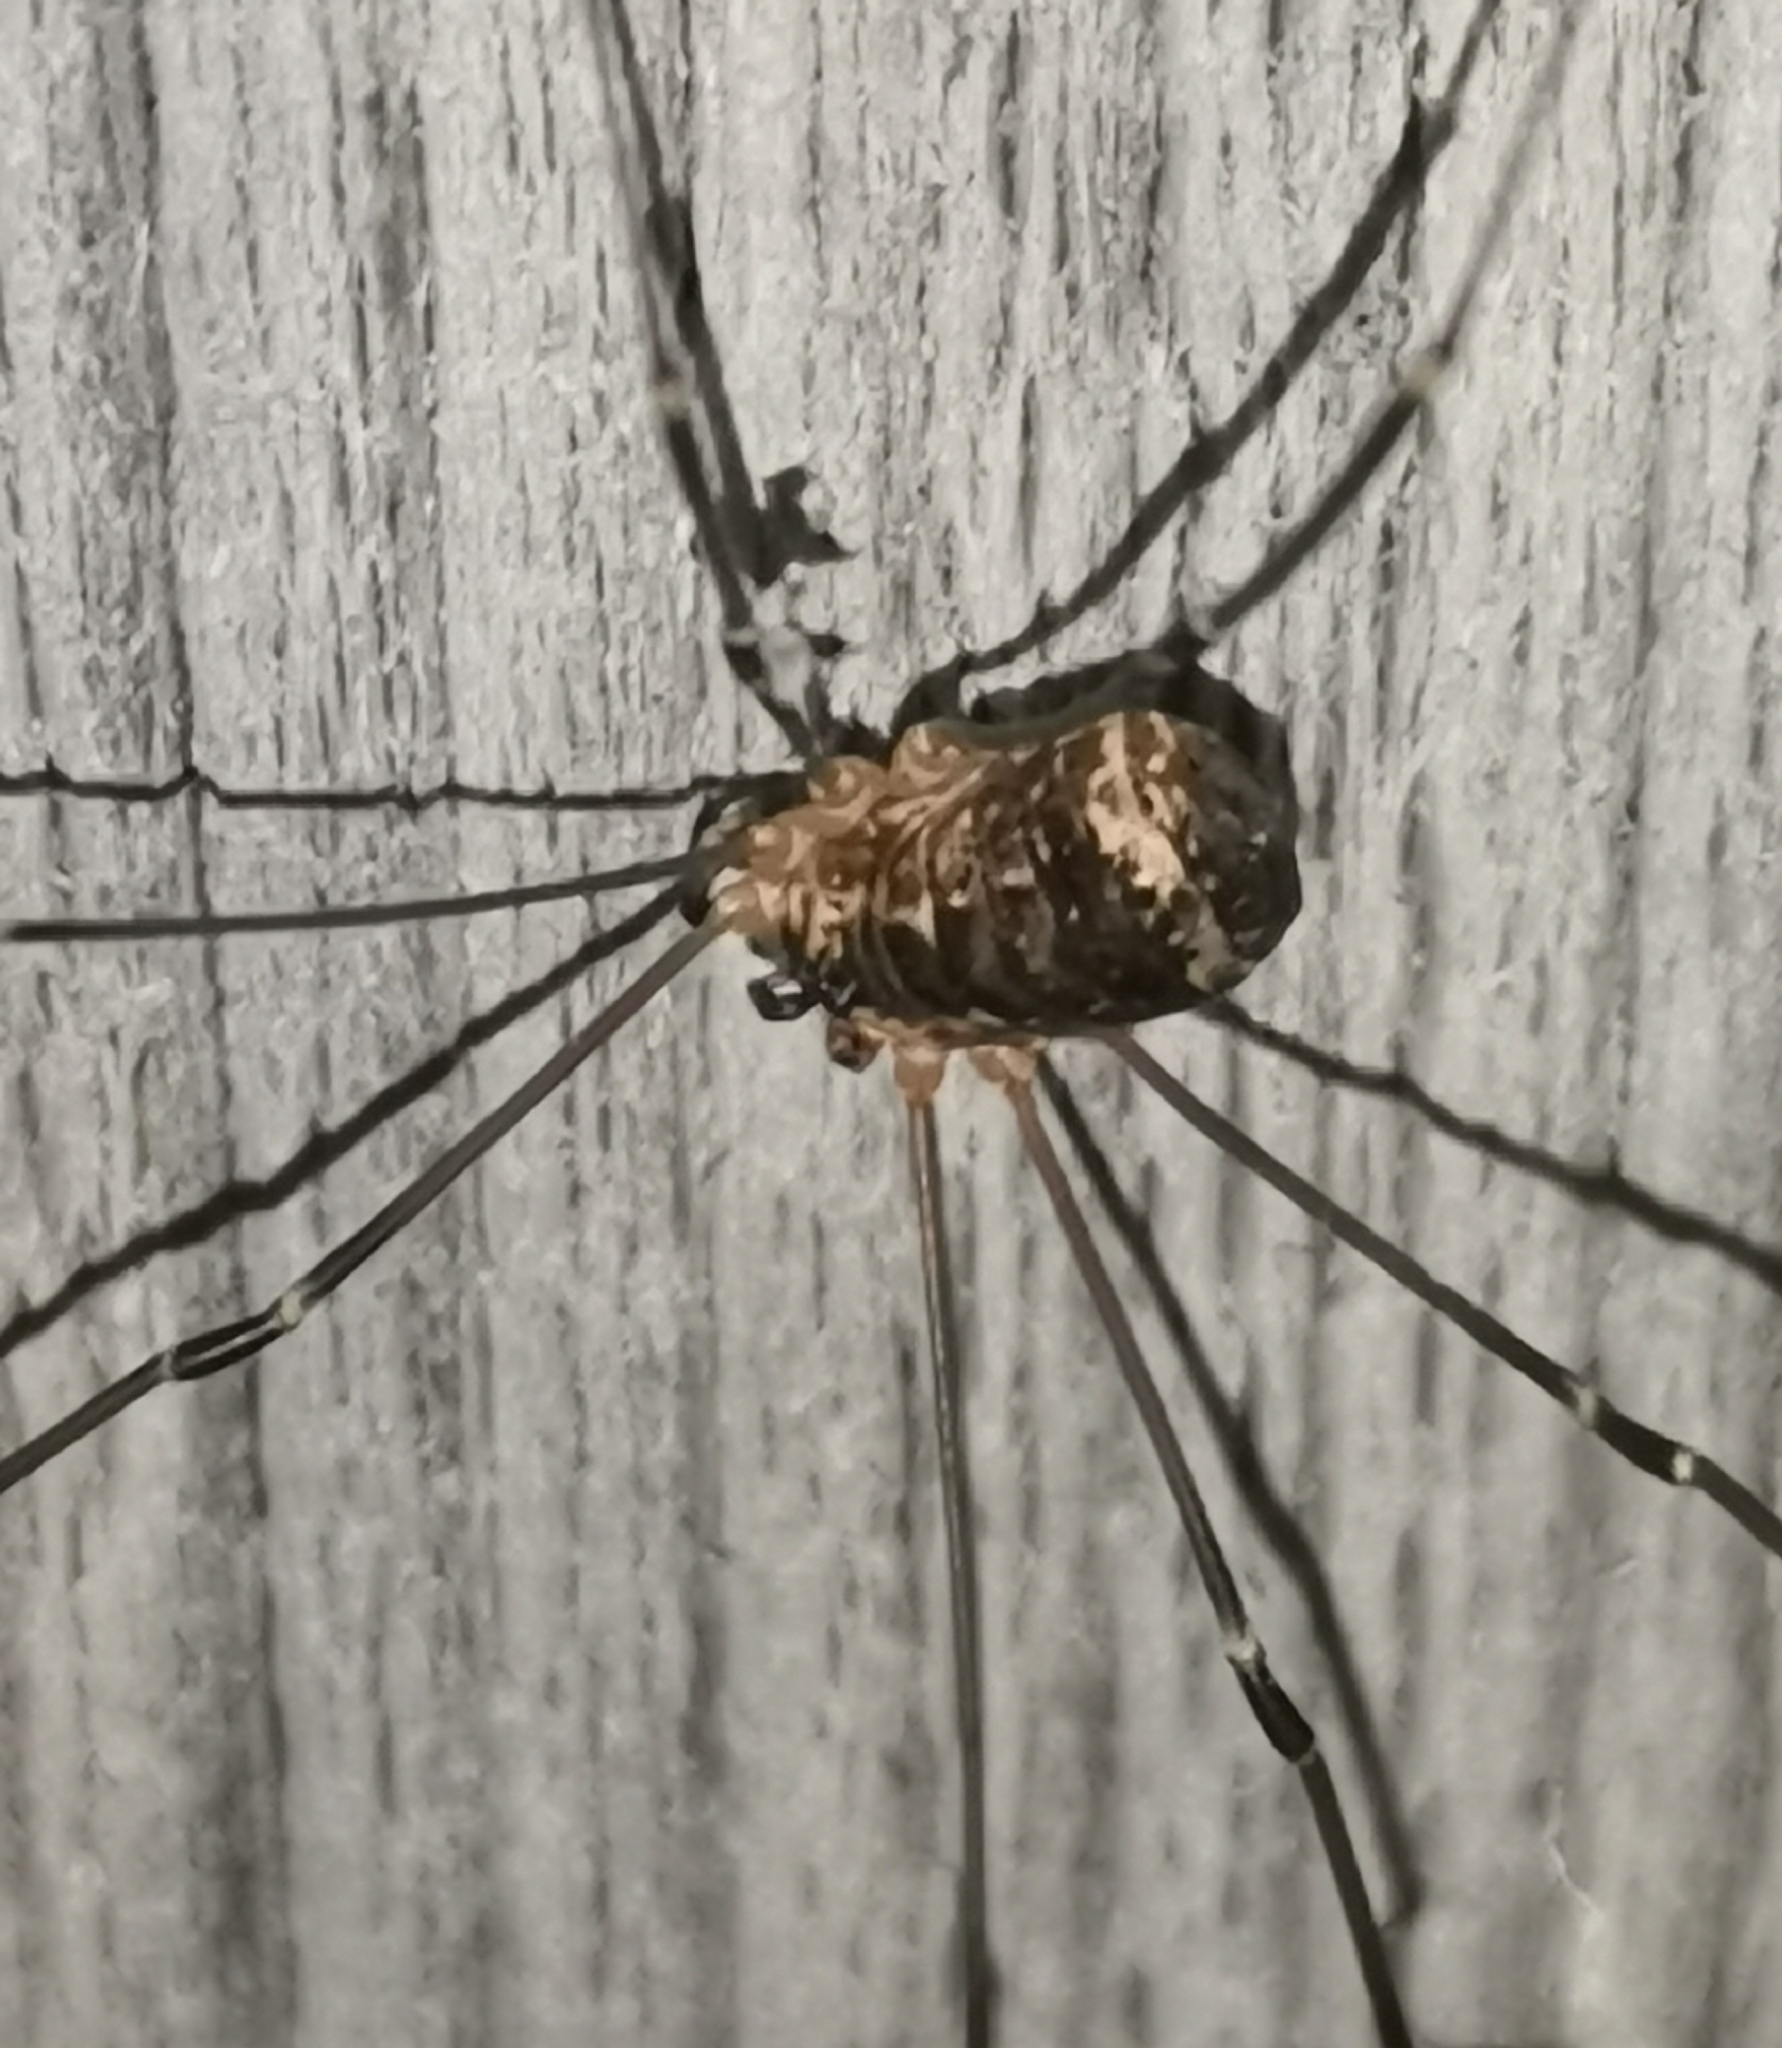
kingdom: Animalia
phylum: Arthropoda
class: Arachnida
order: Opiliones
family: Sclerosomatidae
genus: Leiobunum
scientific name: Leiobunum gracile
